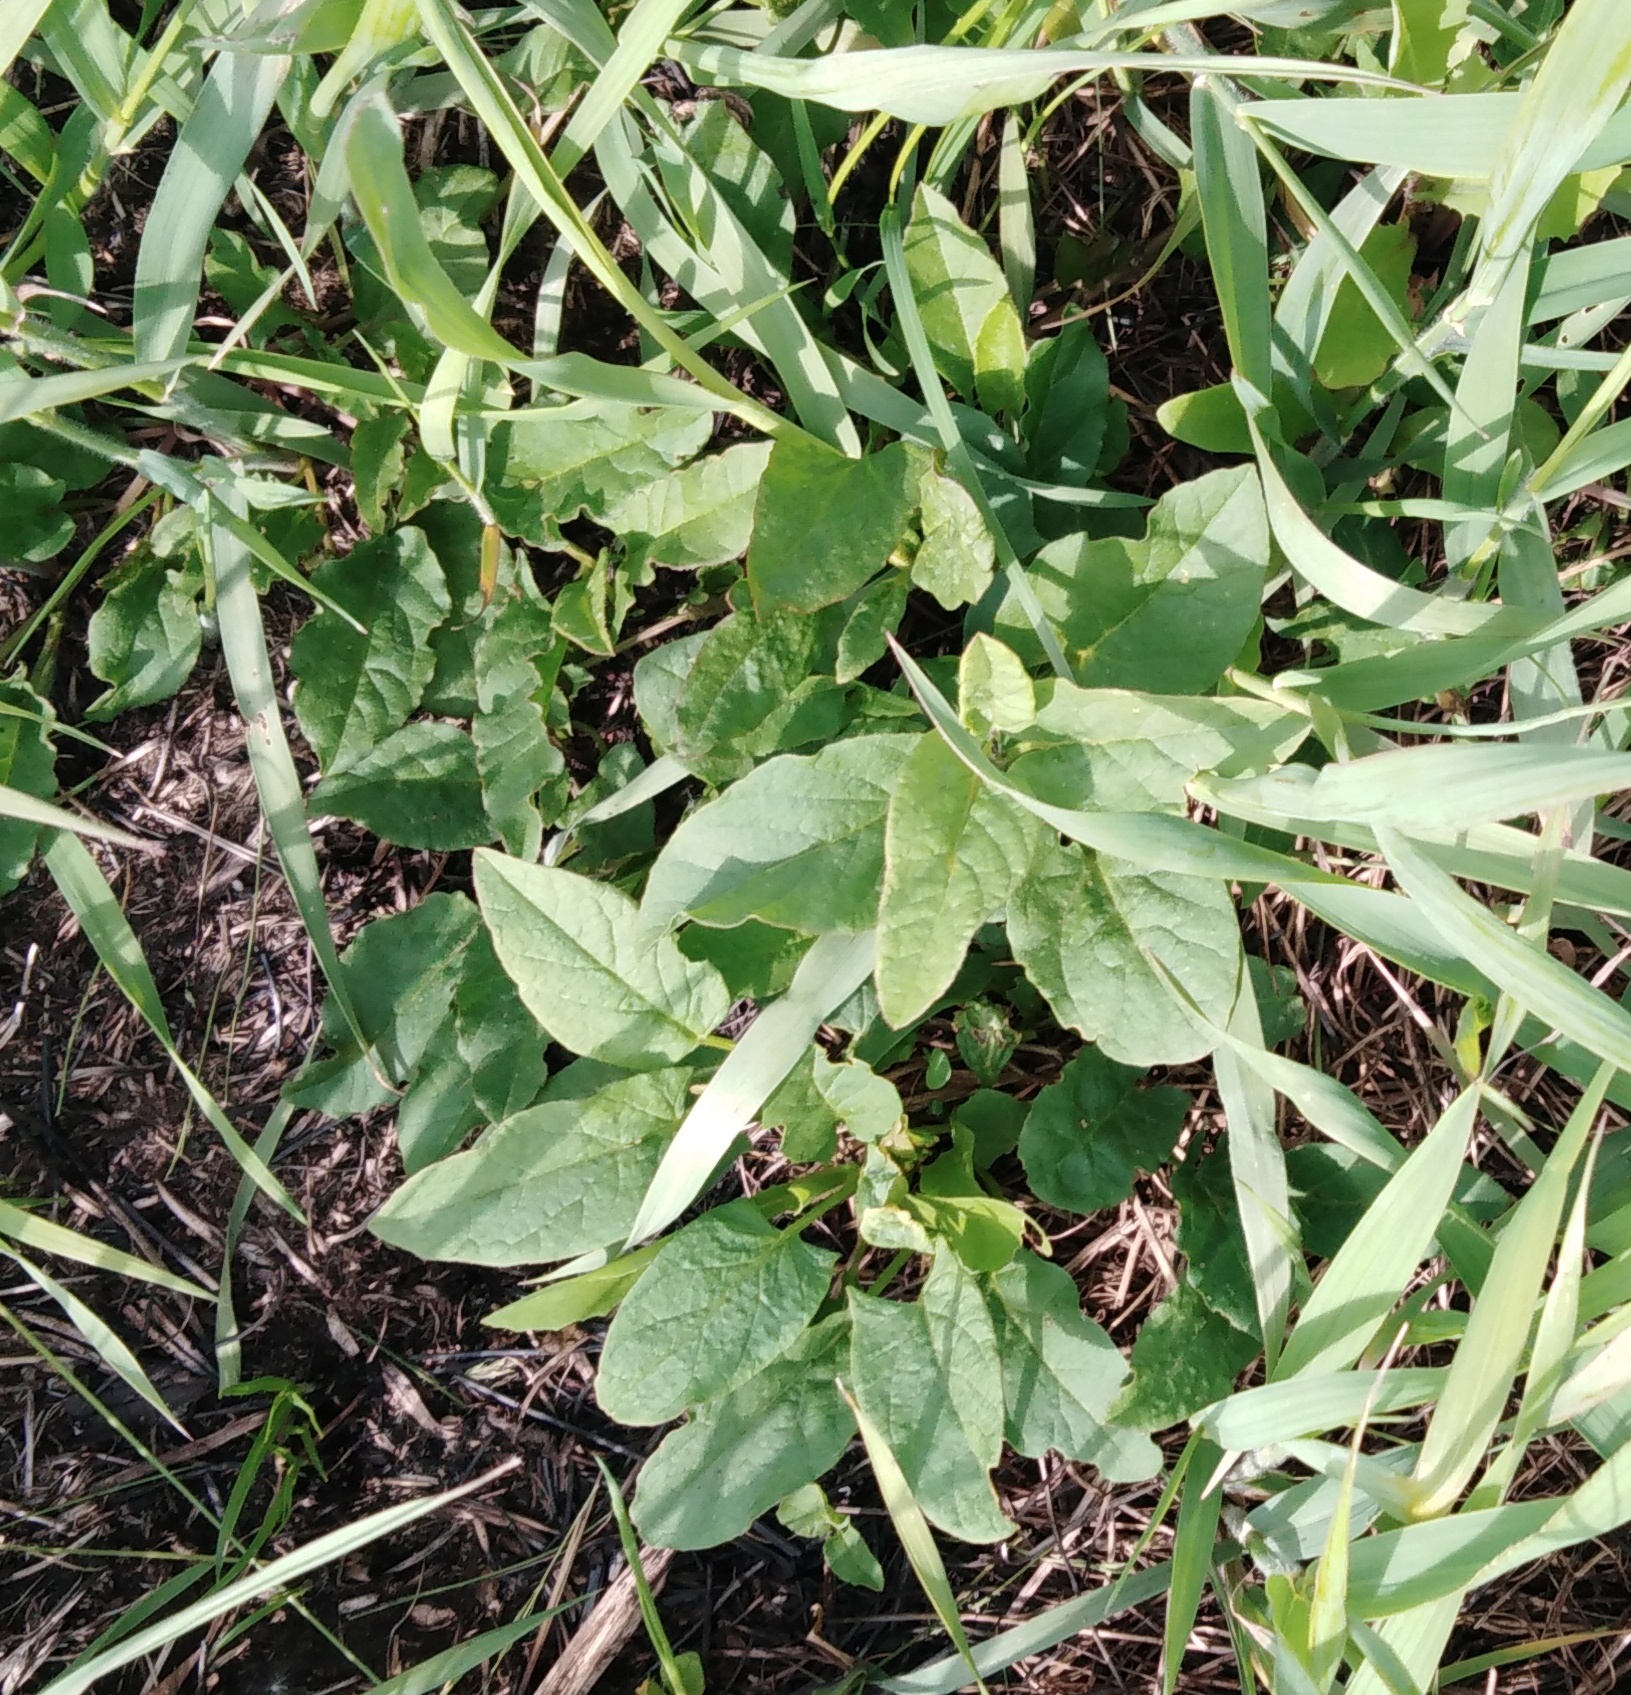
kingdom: Plantae
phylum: Tracheophyta
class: Magnoliopsida
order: Solanales
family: Convolvulaceae
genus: Convolvulus
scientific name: Convolvulus arvensis
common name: Field bindweed
